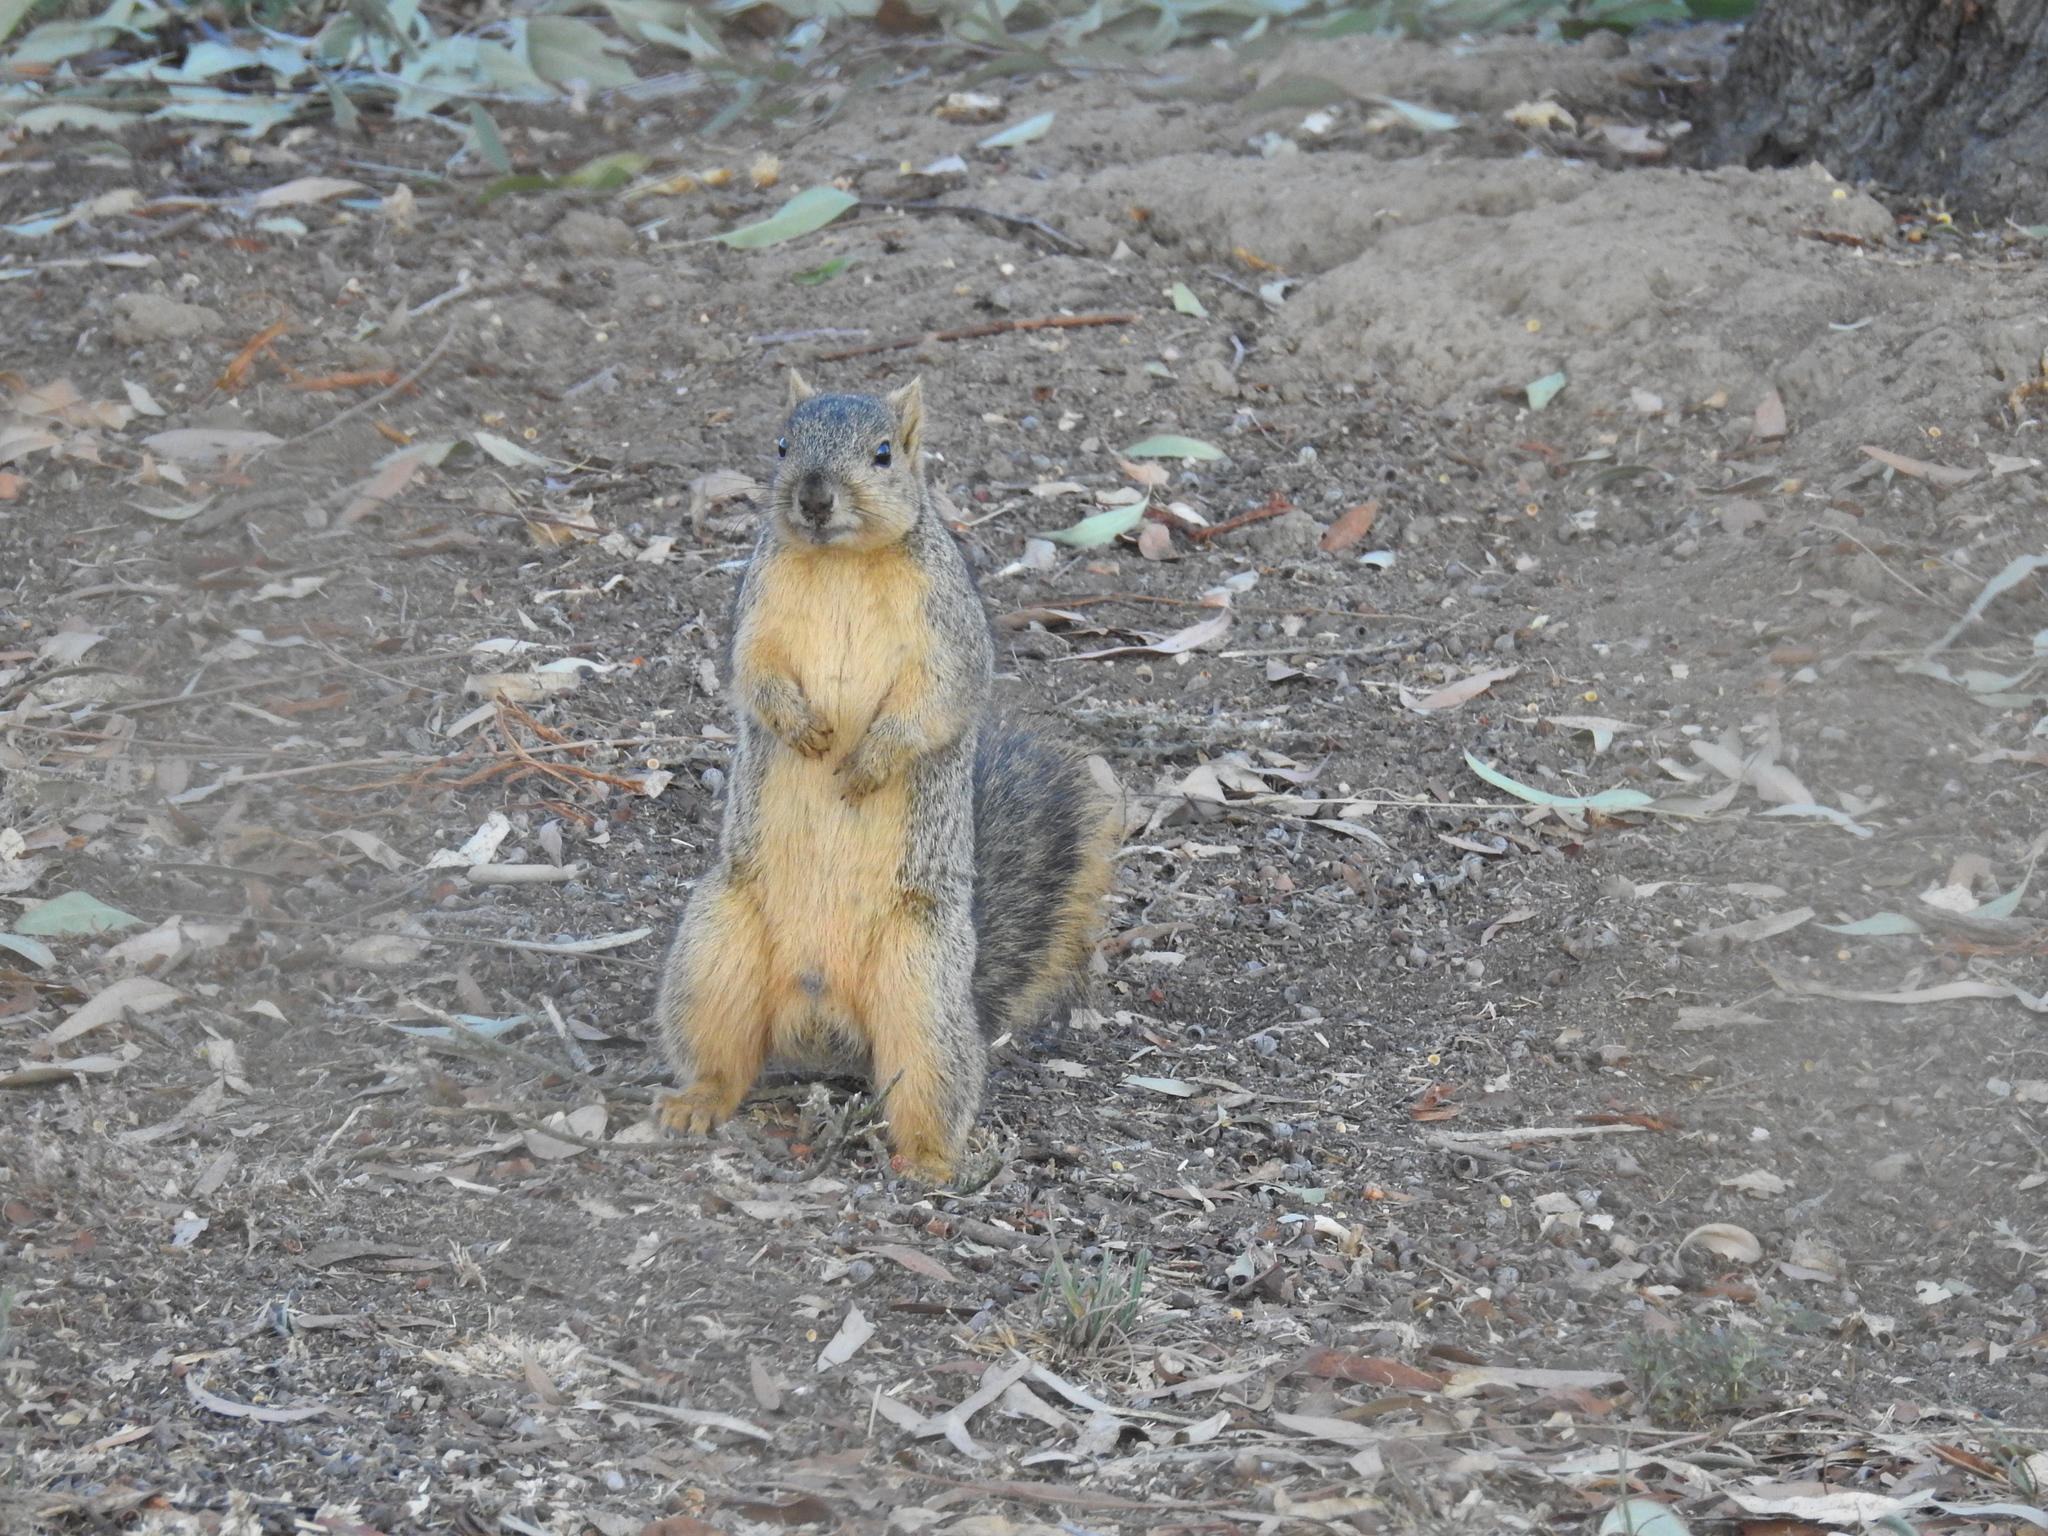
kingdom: Animalia
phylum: Chordata
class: Mammalia
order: Rodentia
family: Sciuridae
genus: Sciurus
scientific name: Sciurus niger
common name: Fox squirrel
